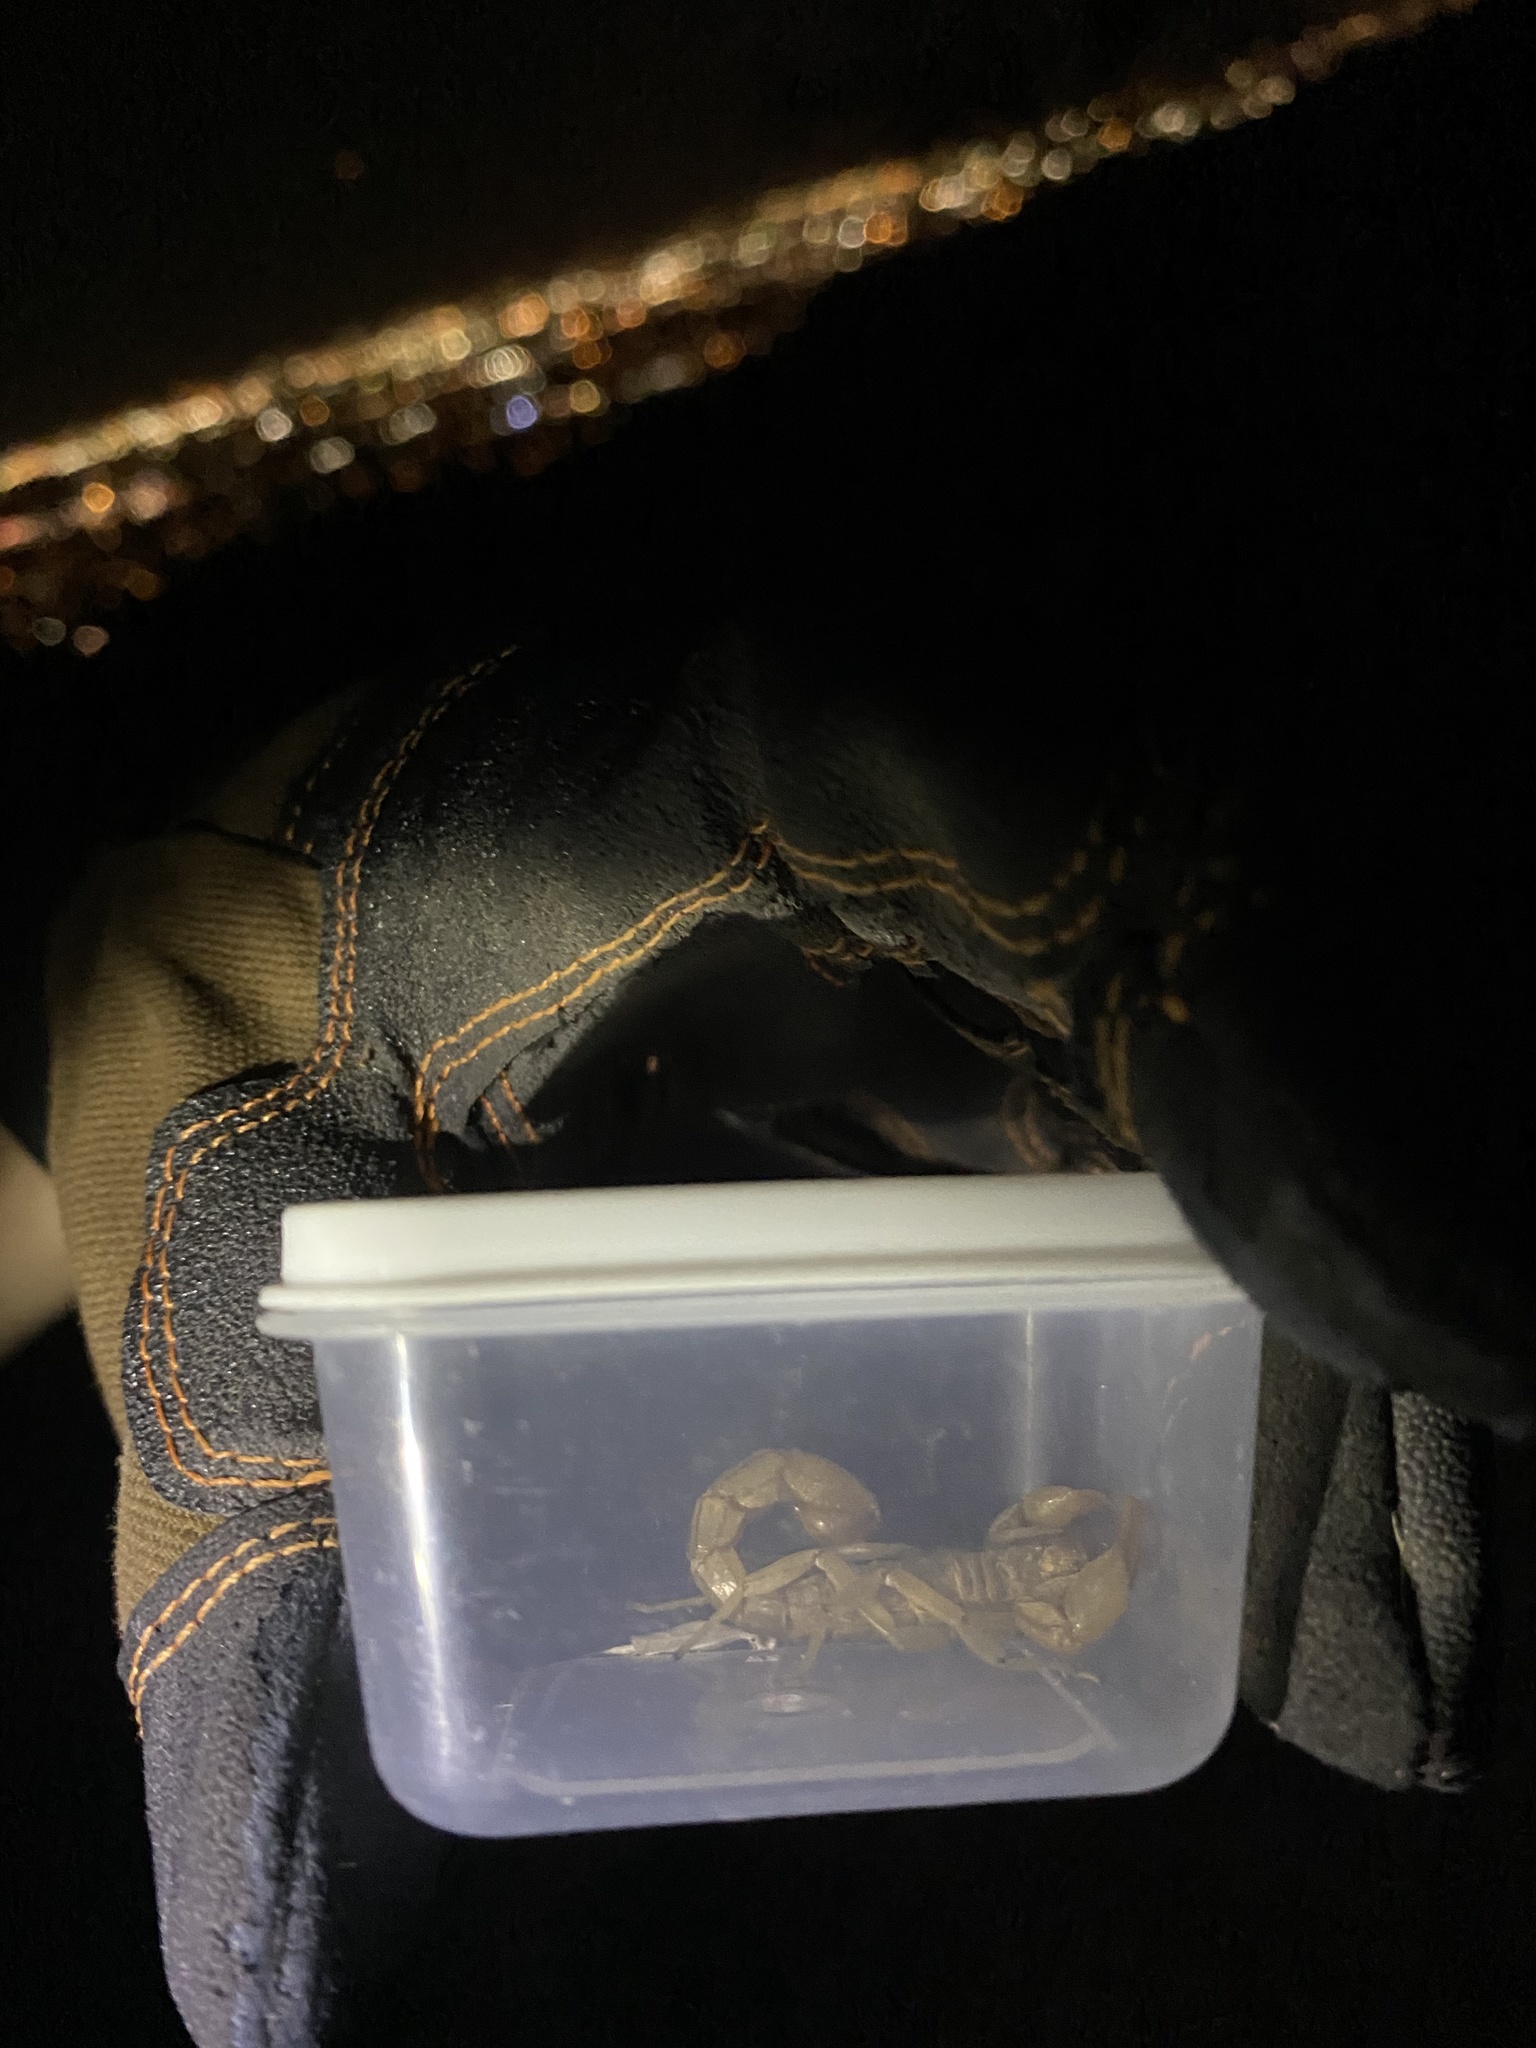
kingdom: Animalia
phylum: Arthropoda
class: Arachnida
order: Scorpiones
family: Vaejovidae
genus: Paravaejovis
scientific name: Paravaejovis spinigerus
